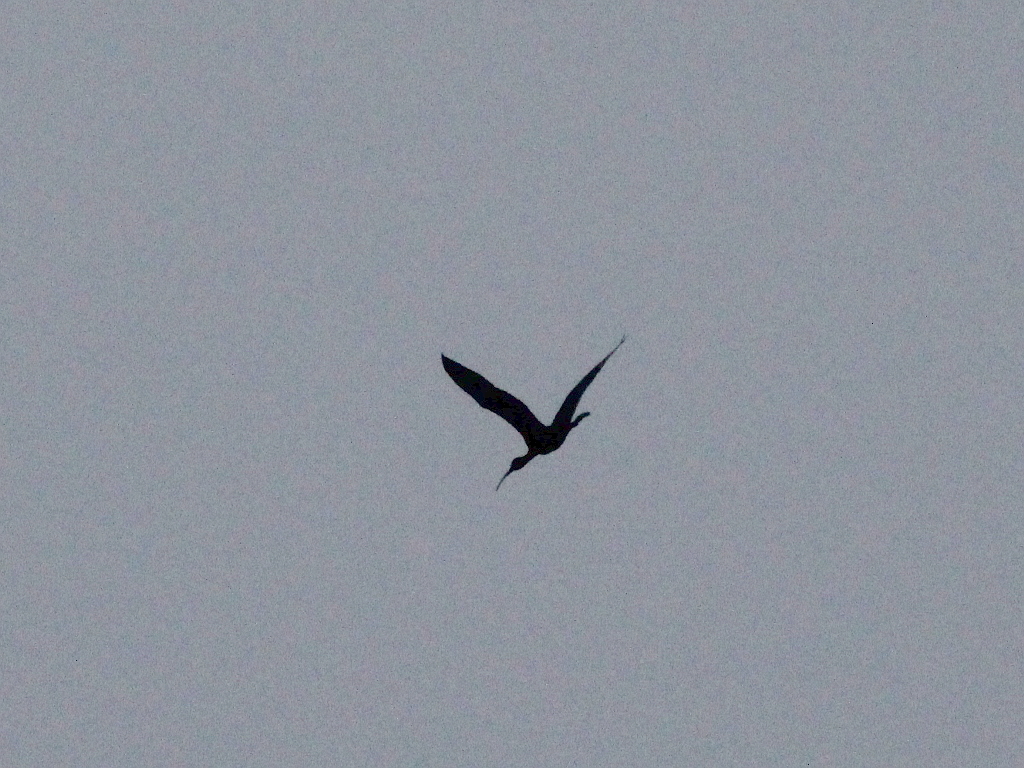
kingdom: Animalia
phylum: Chordata
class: Aves
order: Pelecaniformes
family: Threskiornithidae
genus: Plegadis
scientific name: Plegadis falcinellus
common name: Glossy ibis
